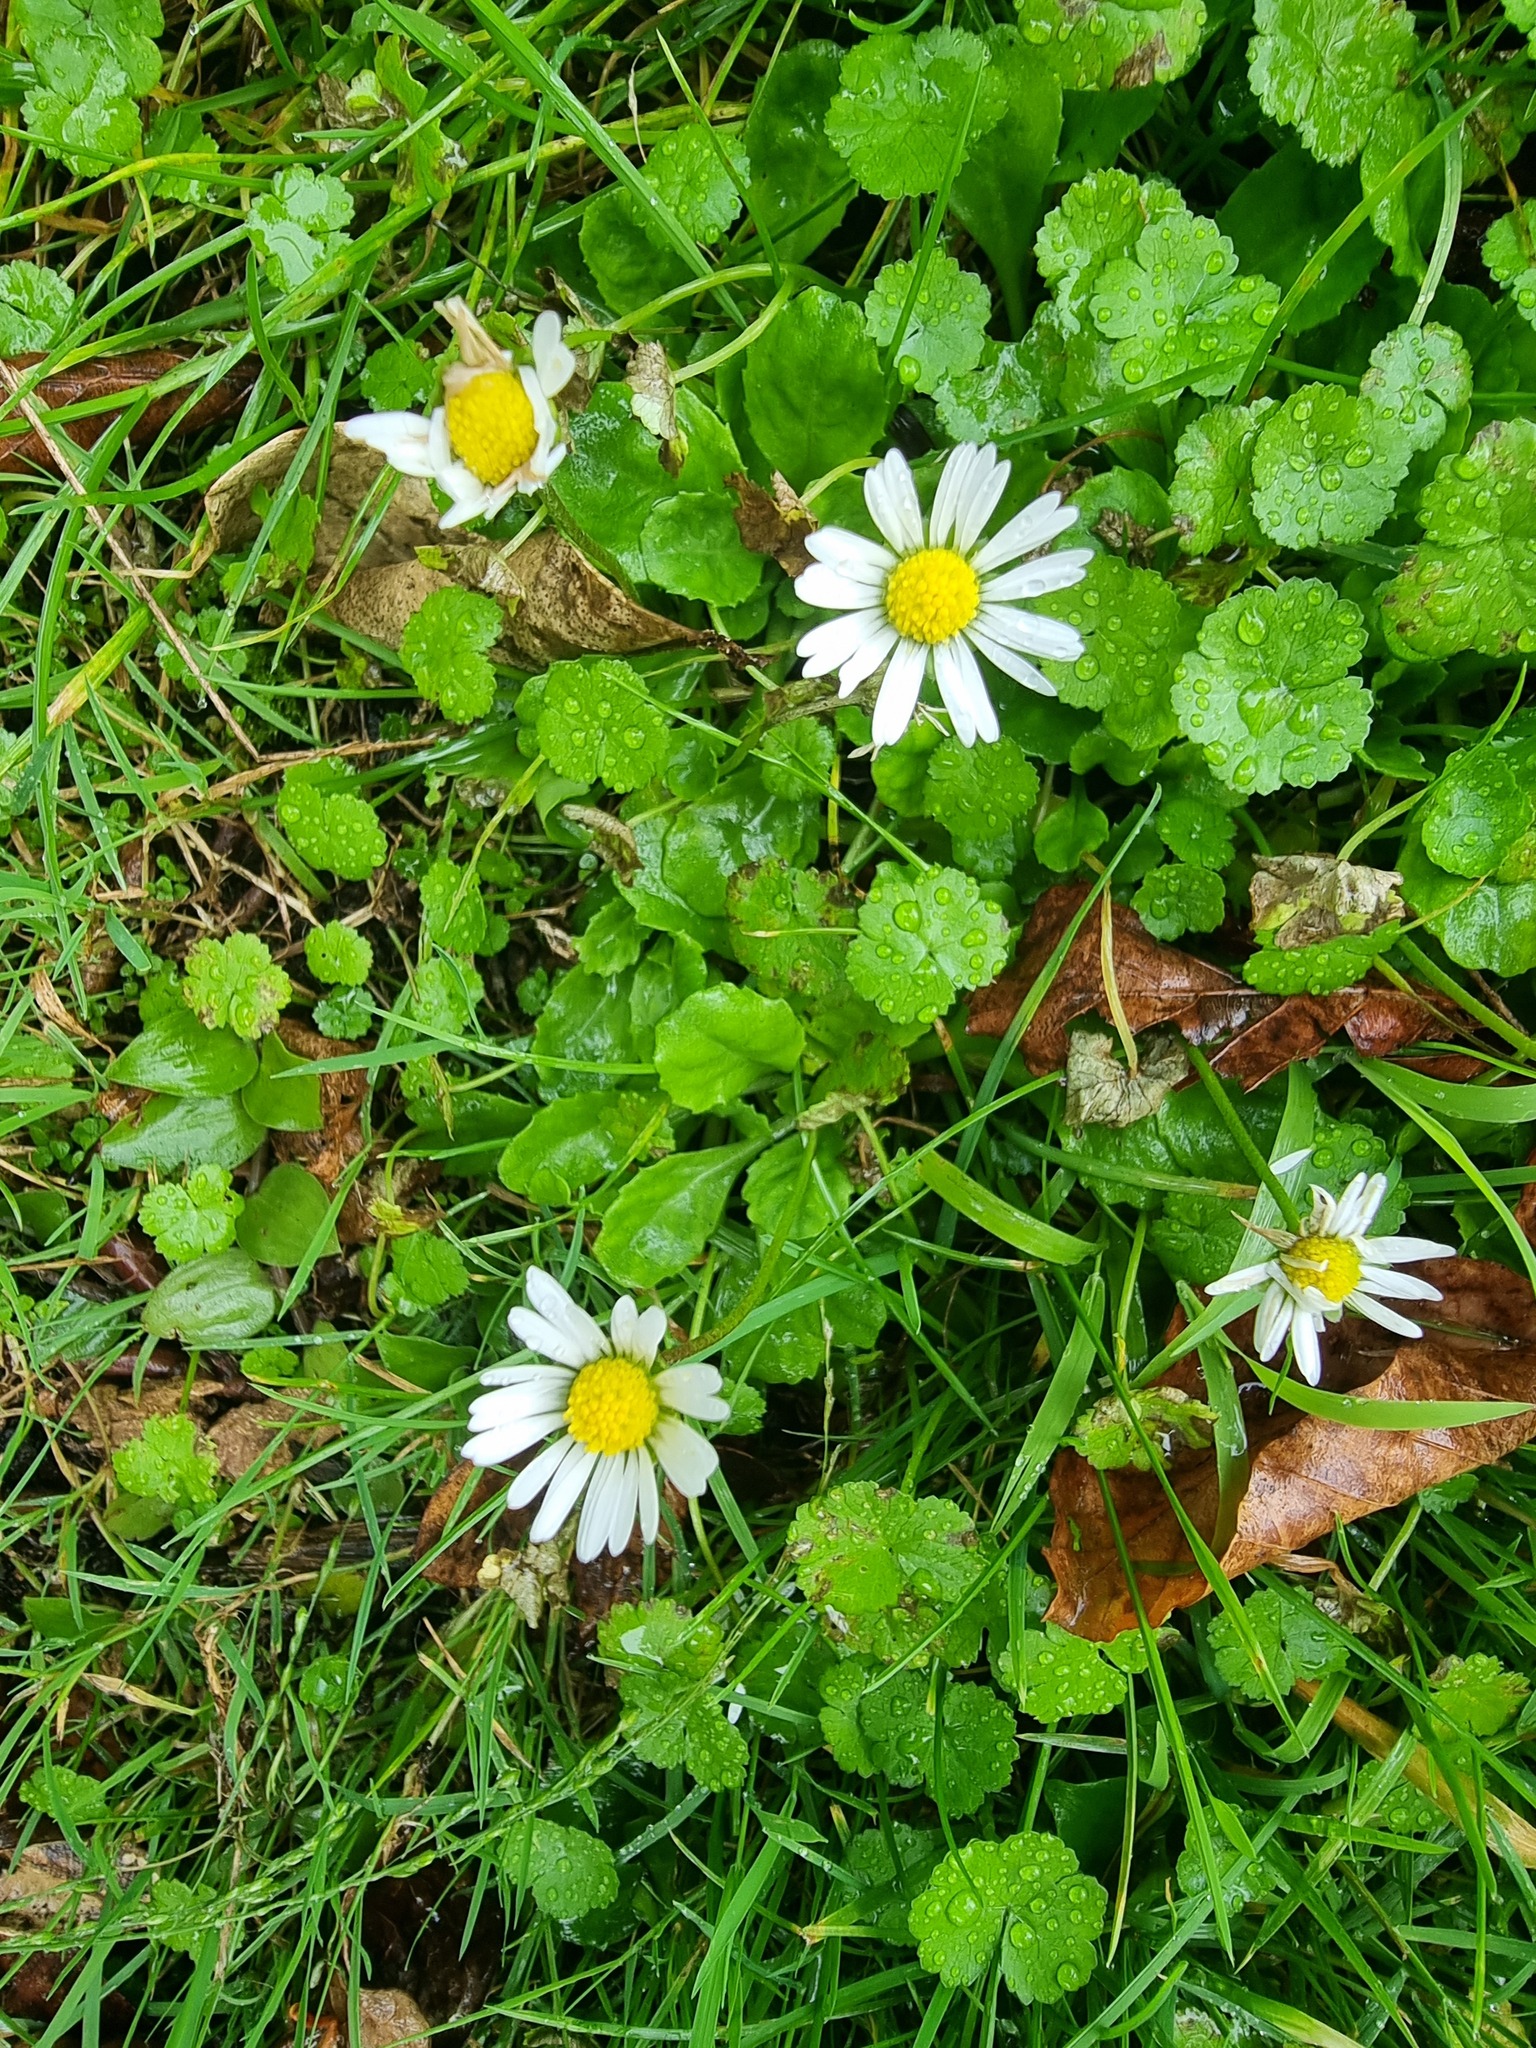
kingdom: Plantae
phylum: Tracheophyta
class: Magnoliopsida
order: Asterales
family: Asteraceae
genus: Bellis
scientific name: Bellis perennis
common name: Lawndaisy
